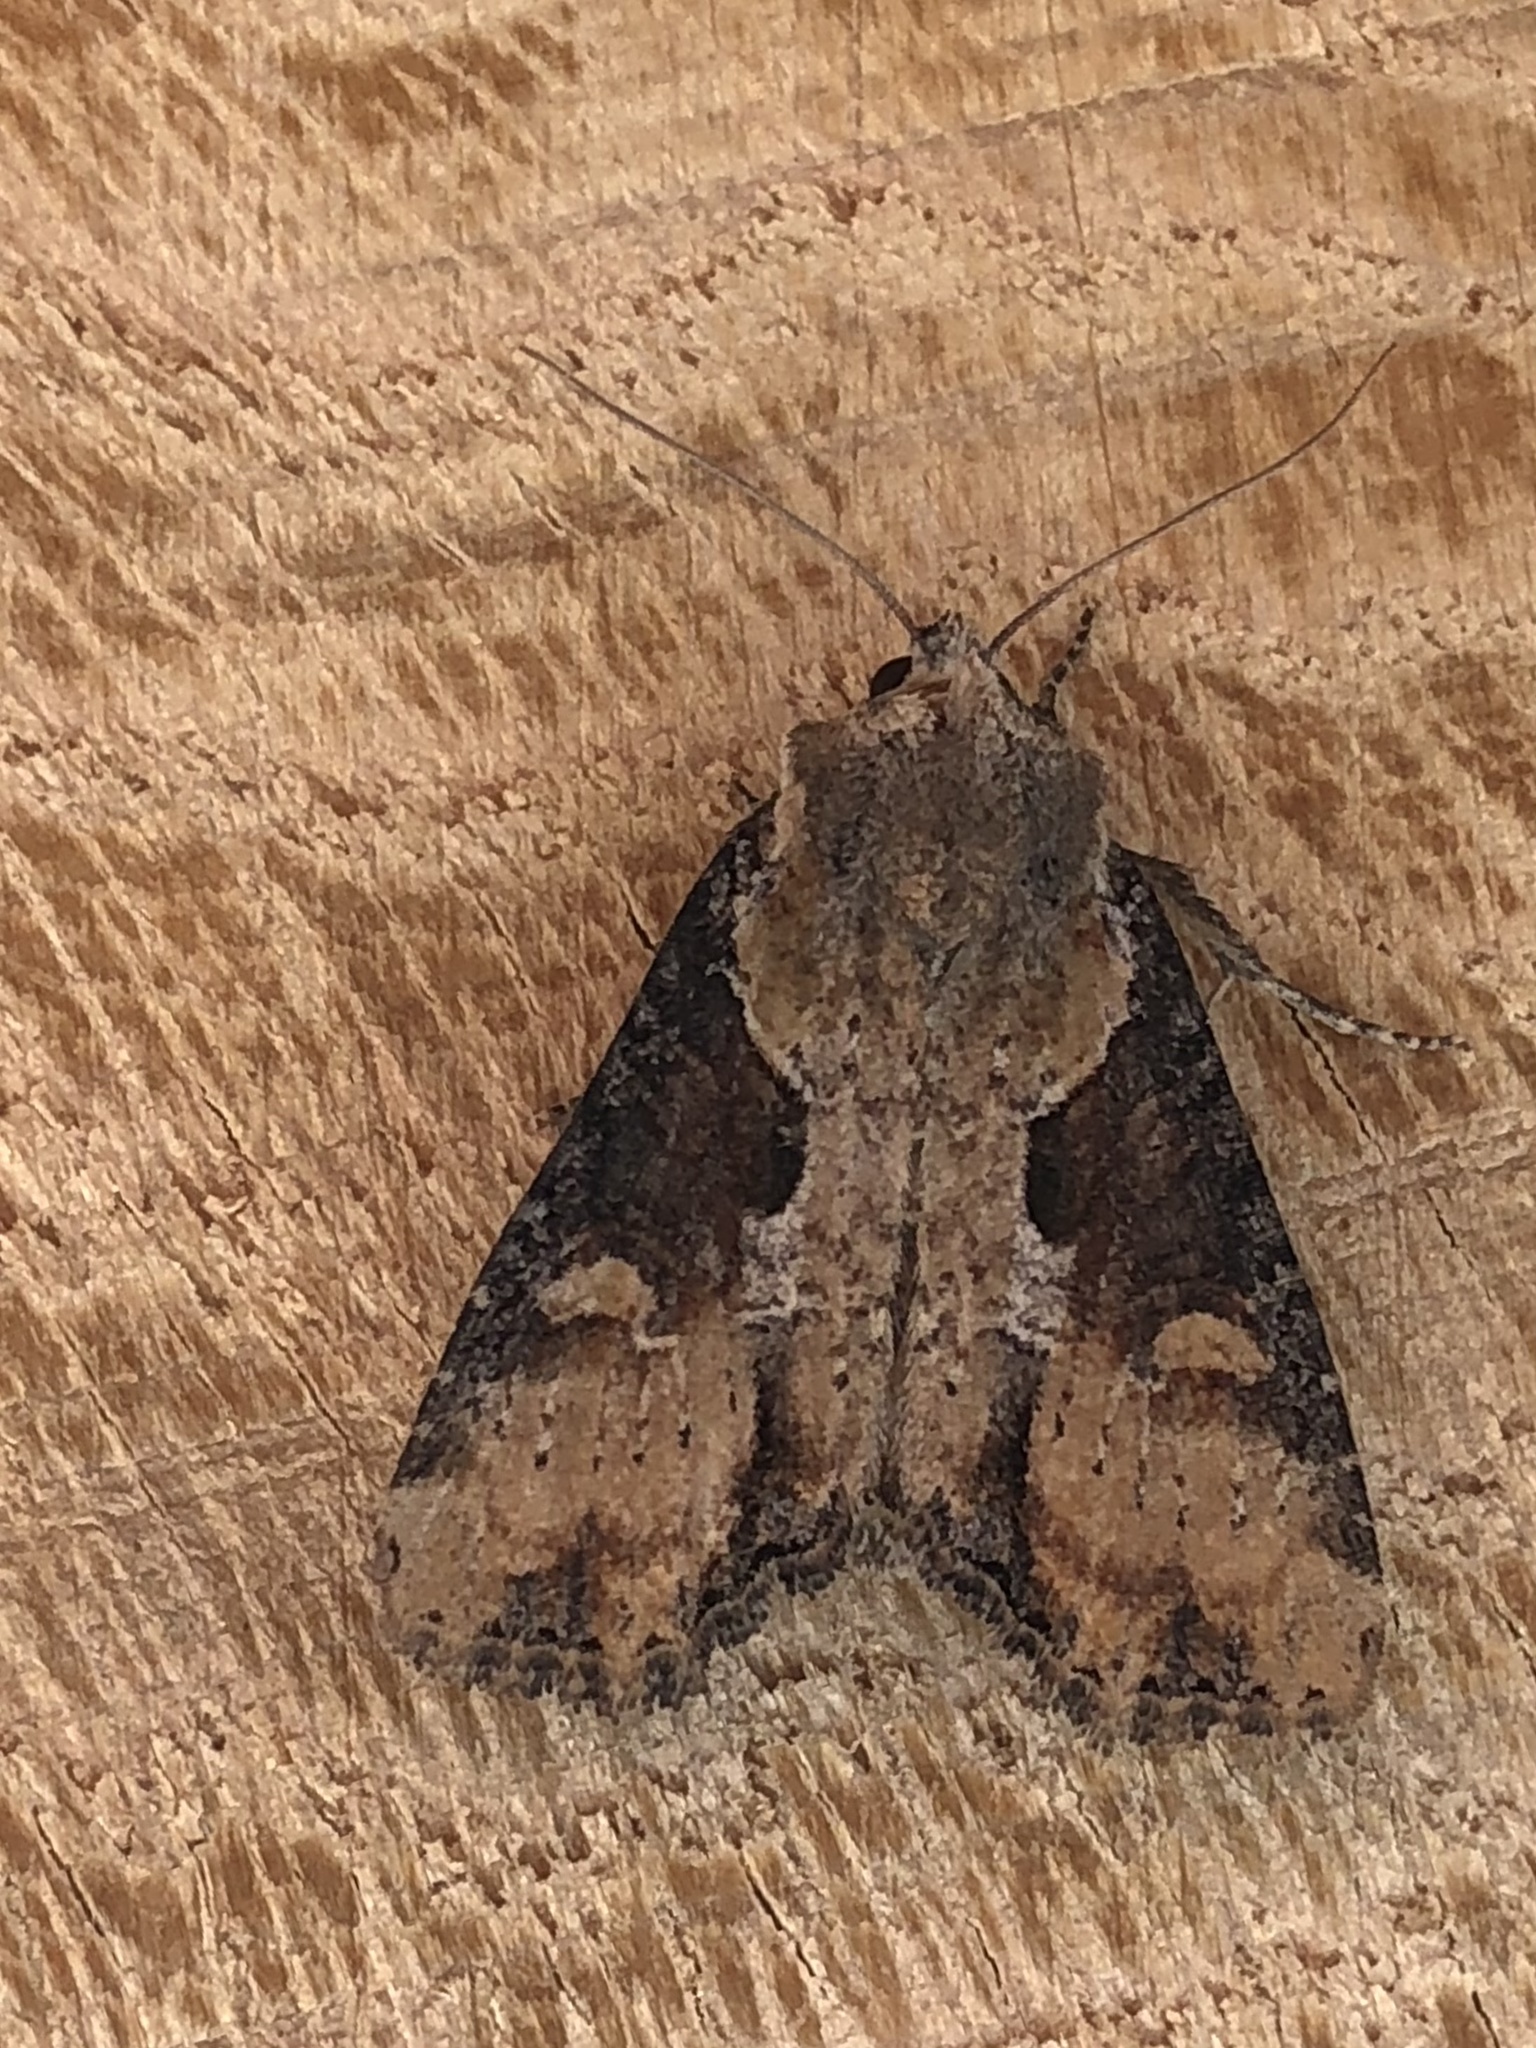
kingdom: Animalia
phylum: Arthropoda
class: Insecta
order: Lepidoptera
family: Noctuidae
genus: Lateroligia
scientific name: Lateroligia ophiogramma
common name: Double lobed
